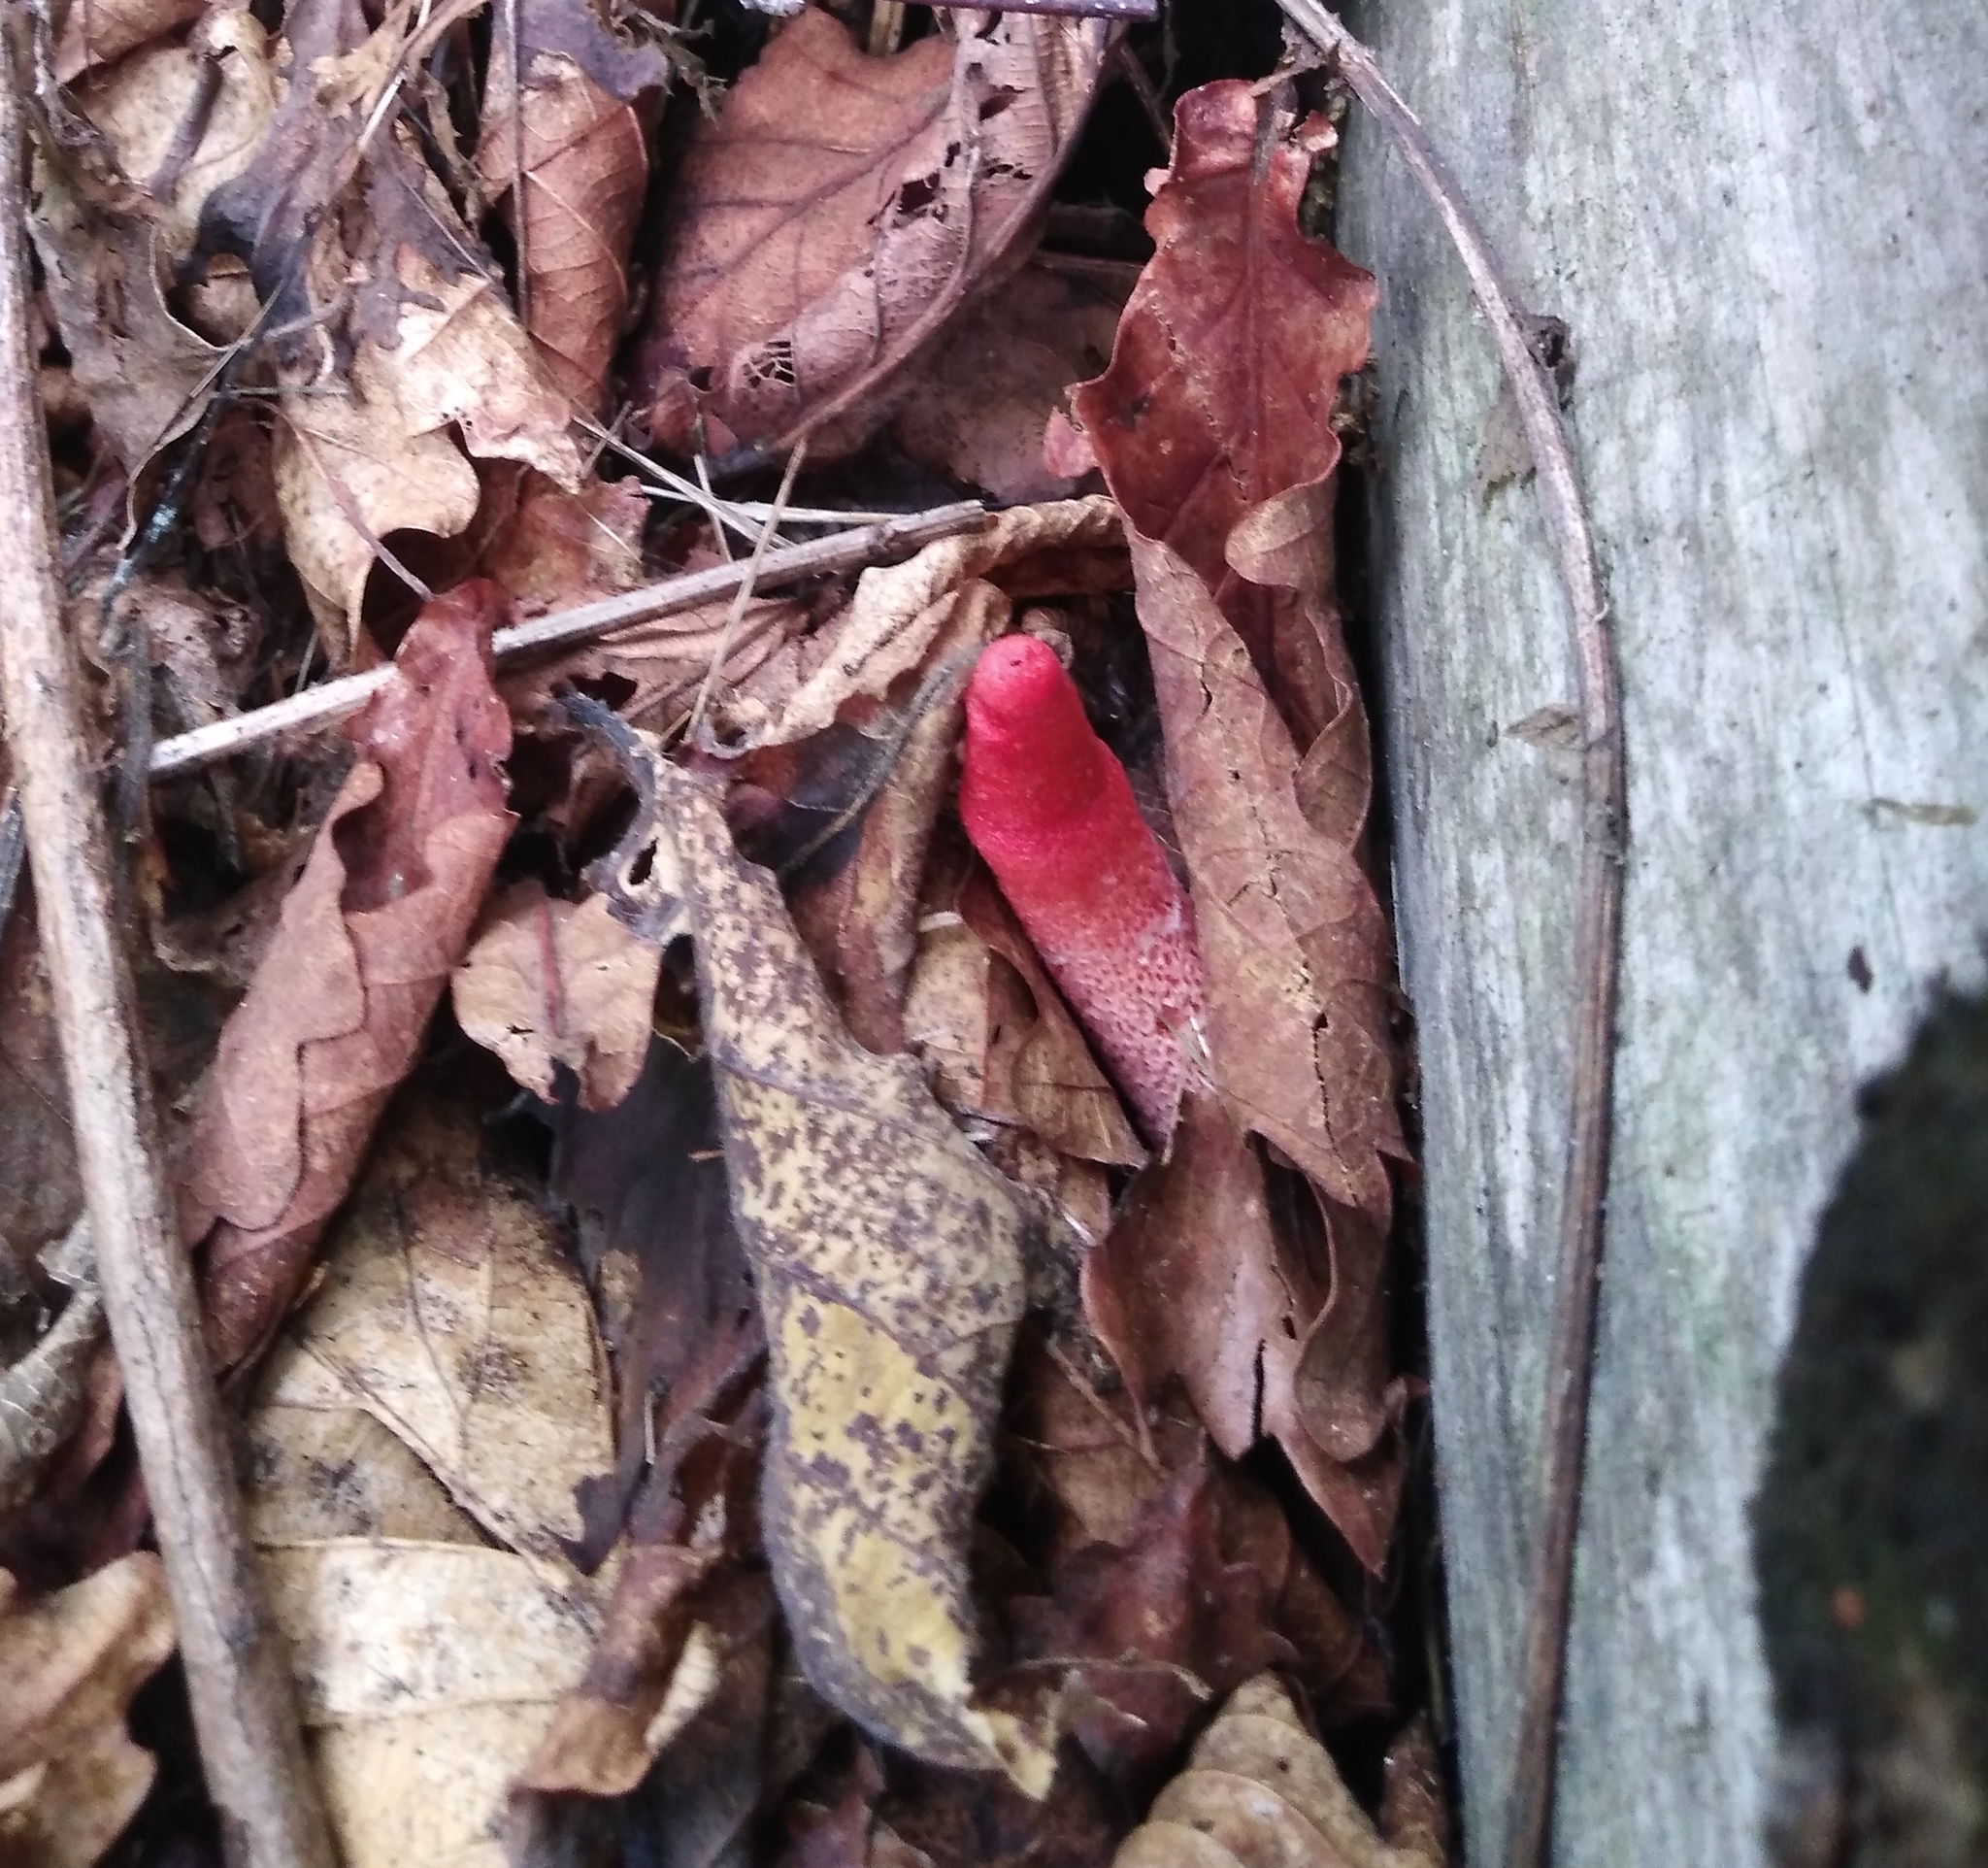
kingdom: Fungi
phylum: Basidiomycota
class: Agaricomycetes
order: Phallales
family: Phallaceae
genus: Mutinus
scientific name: Mutinus ravenelii
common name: Red stinkhorn
